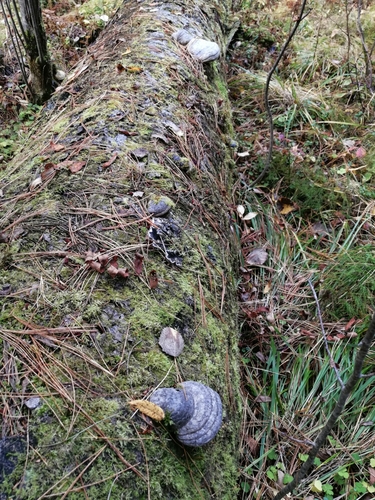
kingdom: Fungi
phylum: Basidiomycota
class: Agaricomycetes
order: Polyporales
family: Polyporaceae
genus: Fomes
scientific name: Fomes fomentarius
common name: Hoof fungus
